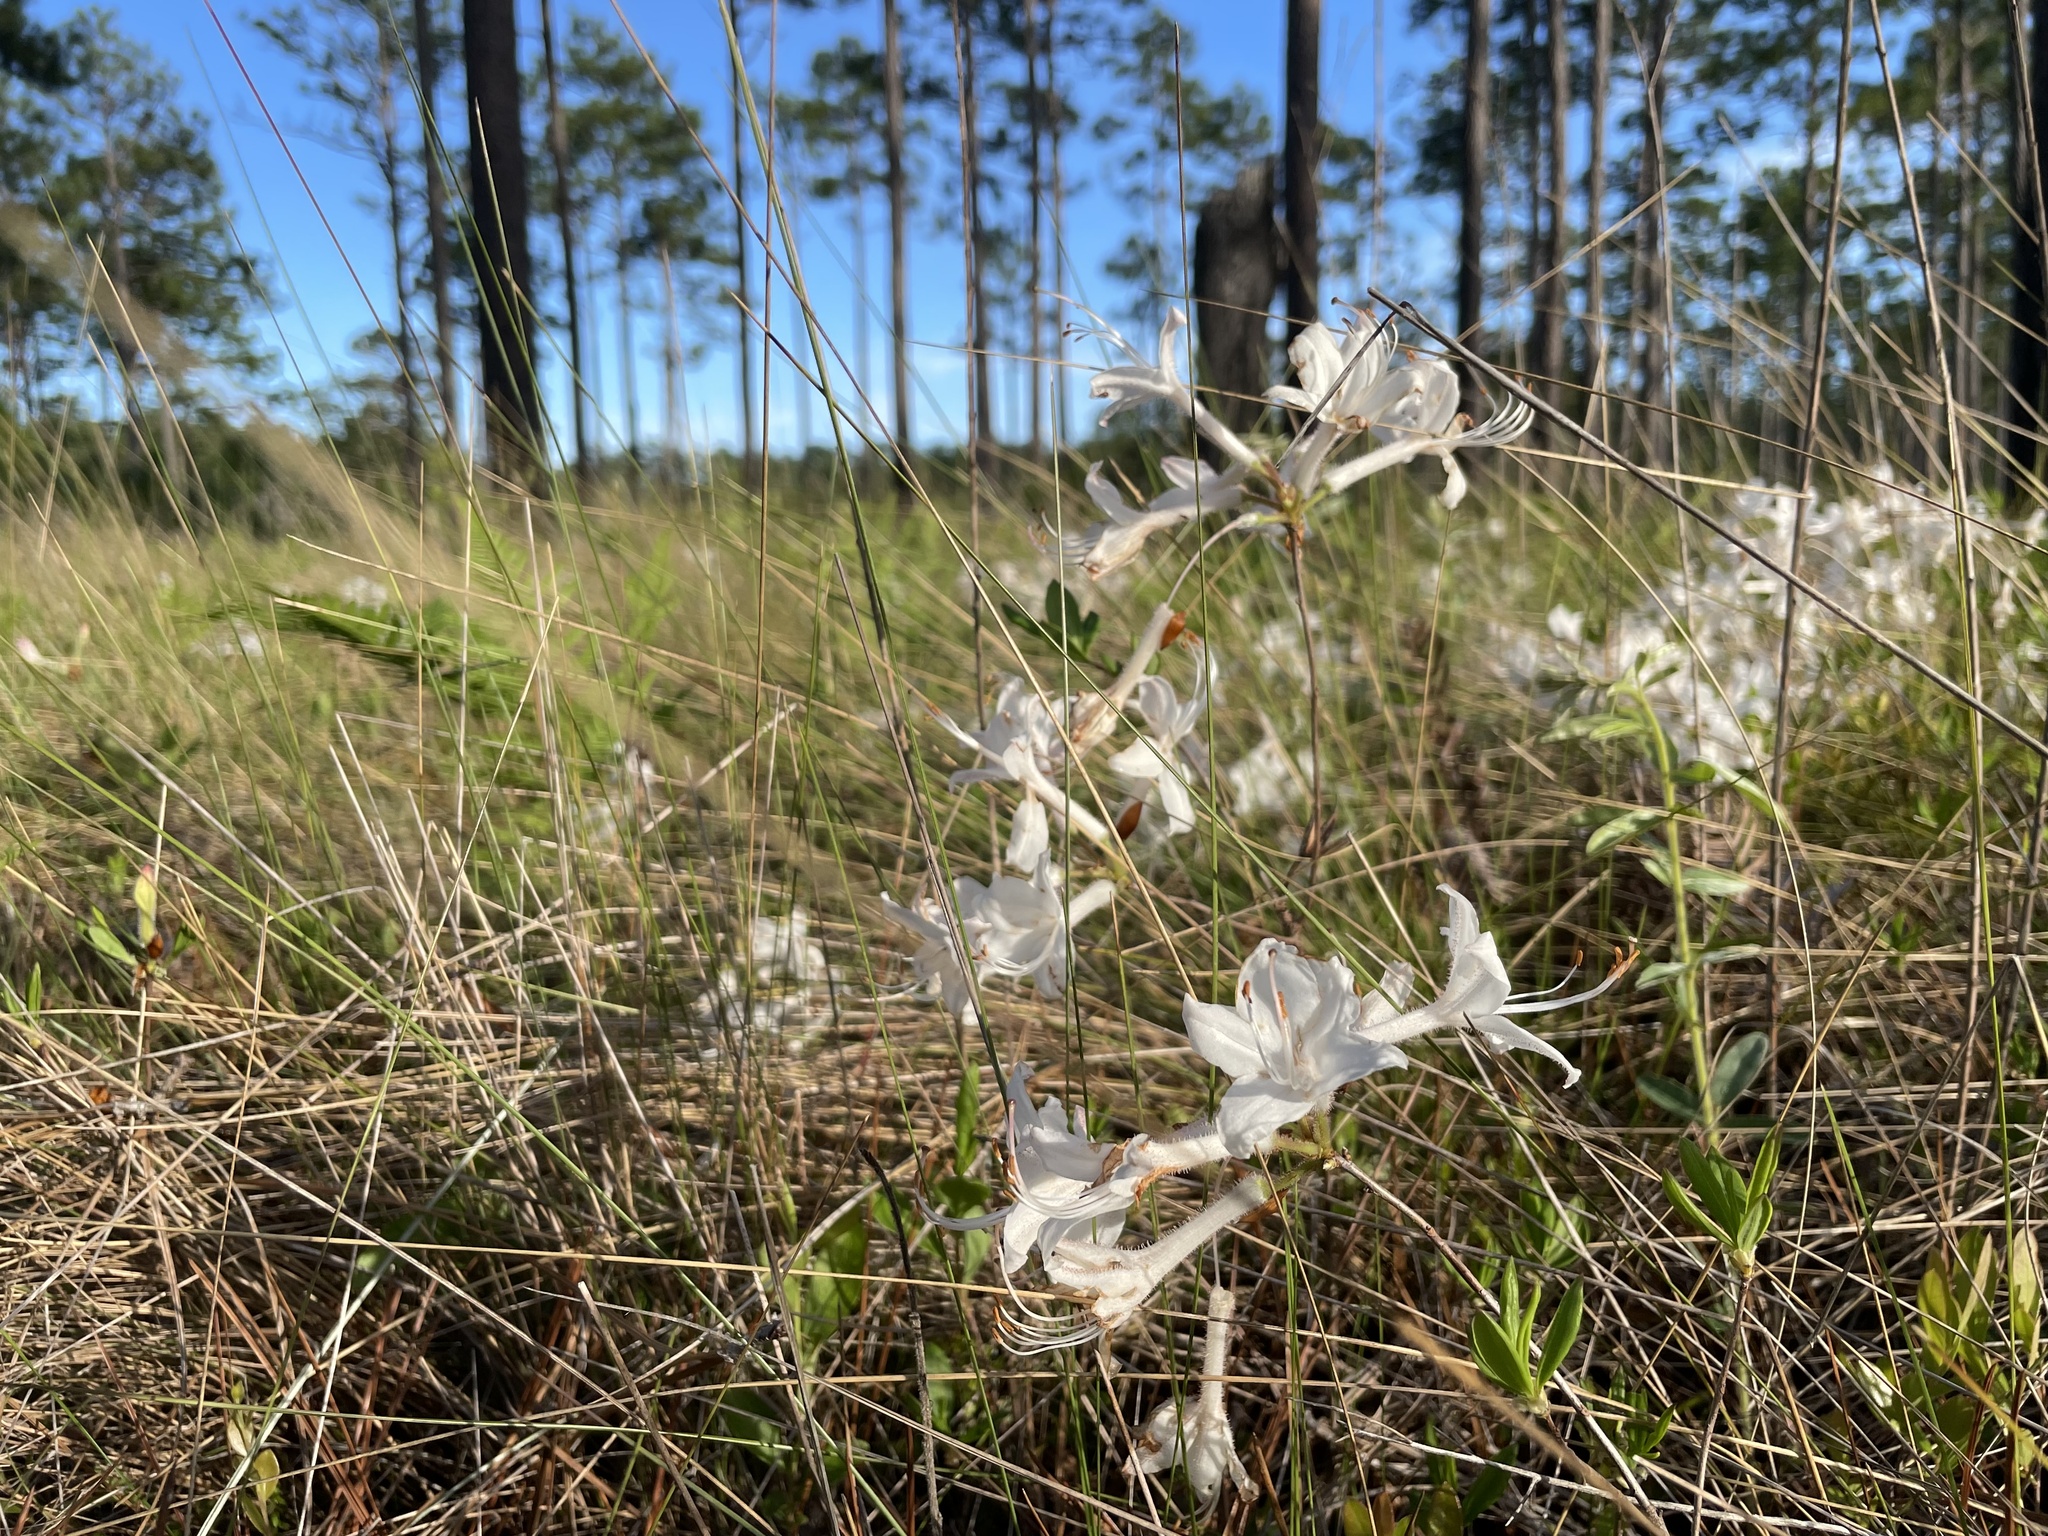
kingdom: Plantae
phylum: Tracheophyta
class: Magnoliopsida
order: Ericales
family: Ericaceae
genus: Rhododendron
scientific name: Rhododendron atlanticum
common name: Dwarf azalea
